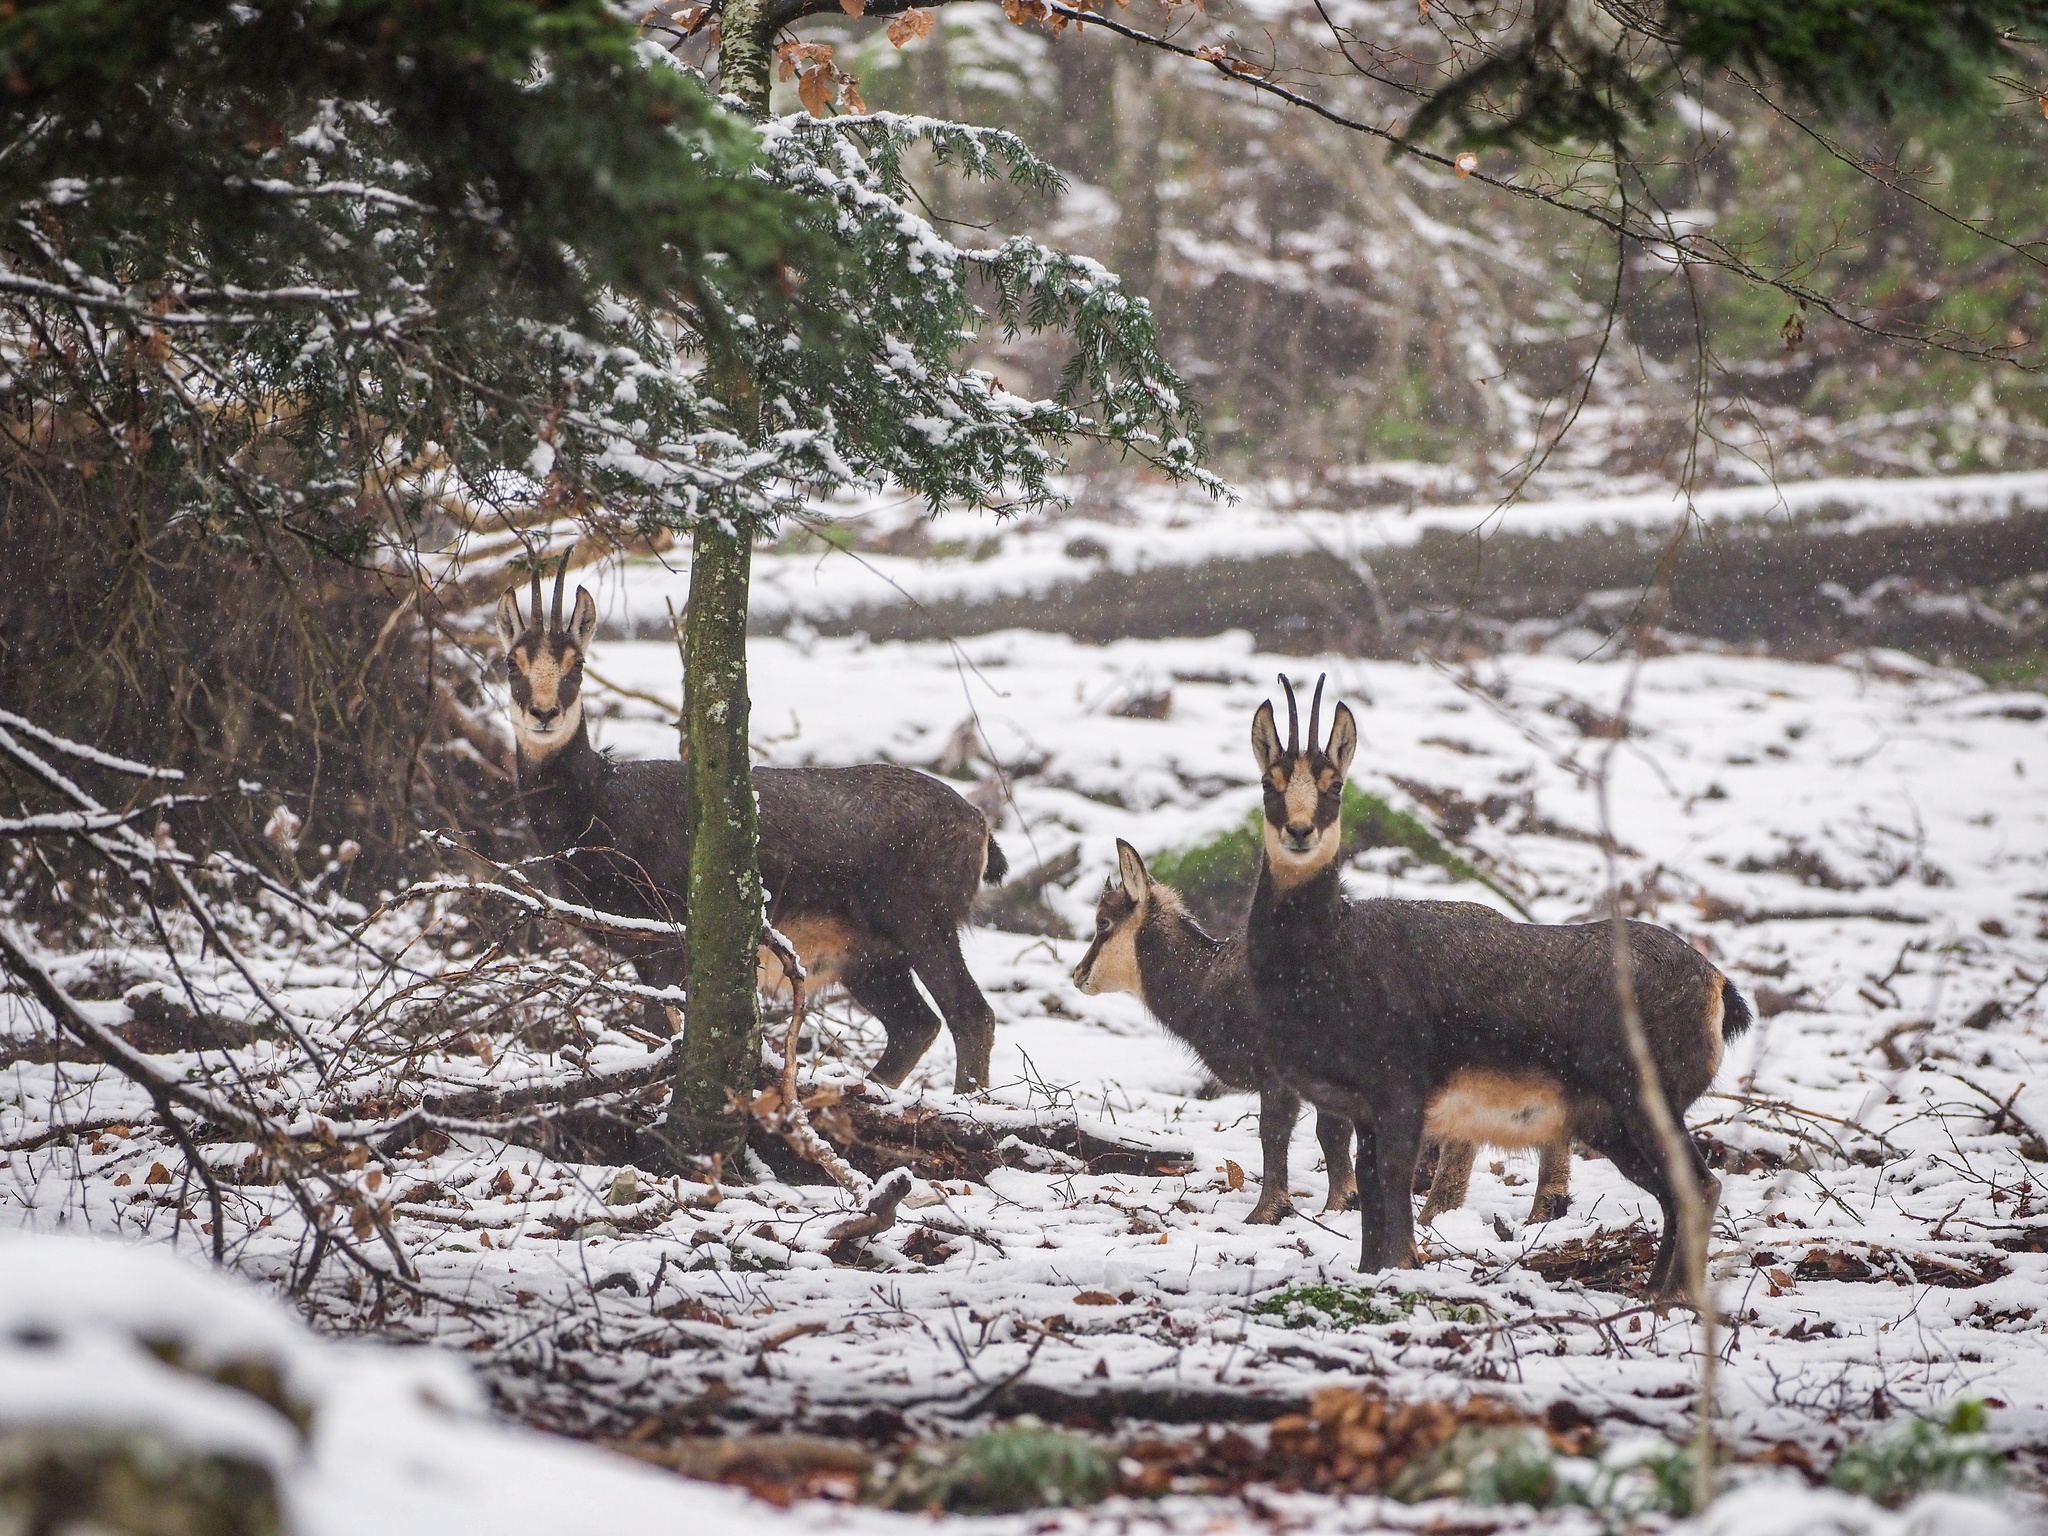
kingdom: Animalia
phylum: Chordata
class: Mammalia
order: Artiodactyla
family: Bovidae
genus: Rupicapra
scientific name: Rupicapra rupicapra
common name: Chamois
